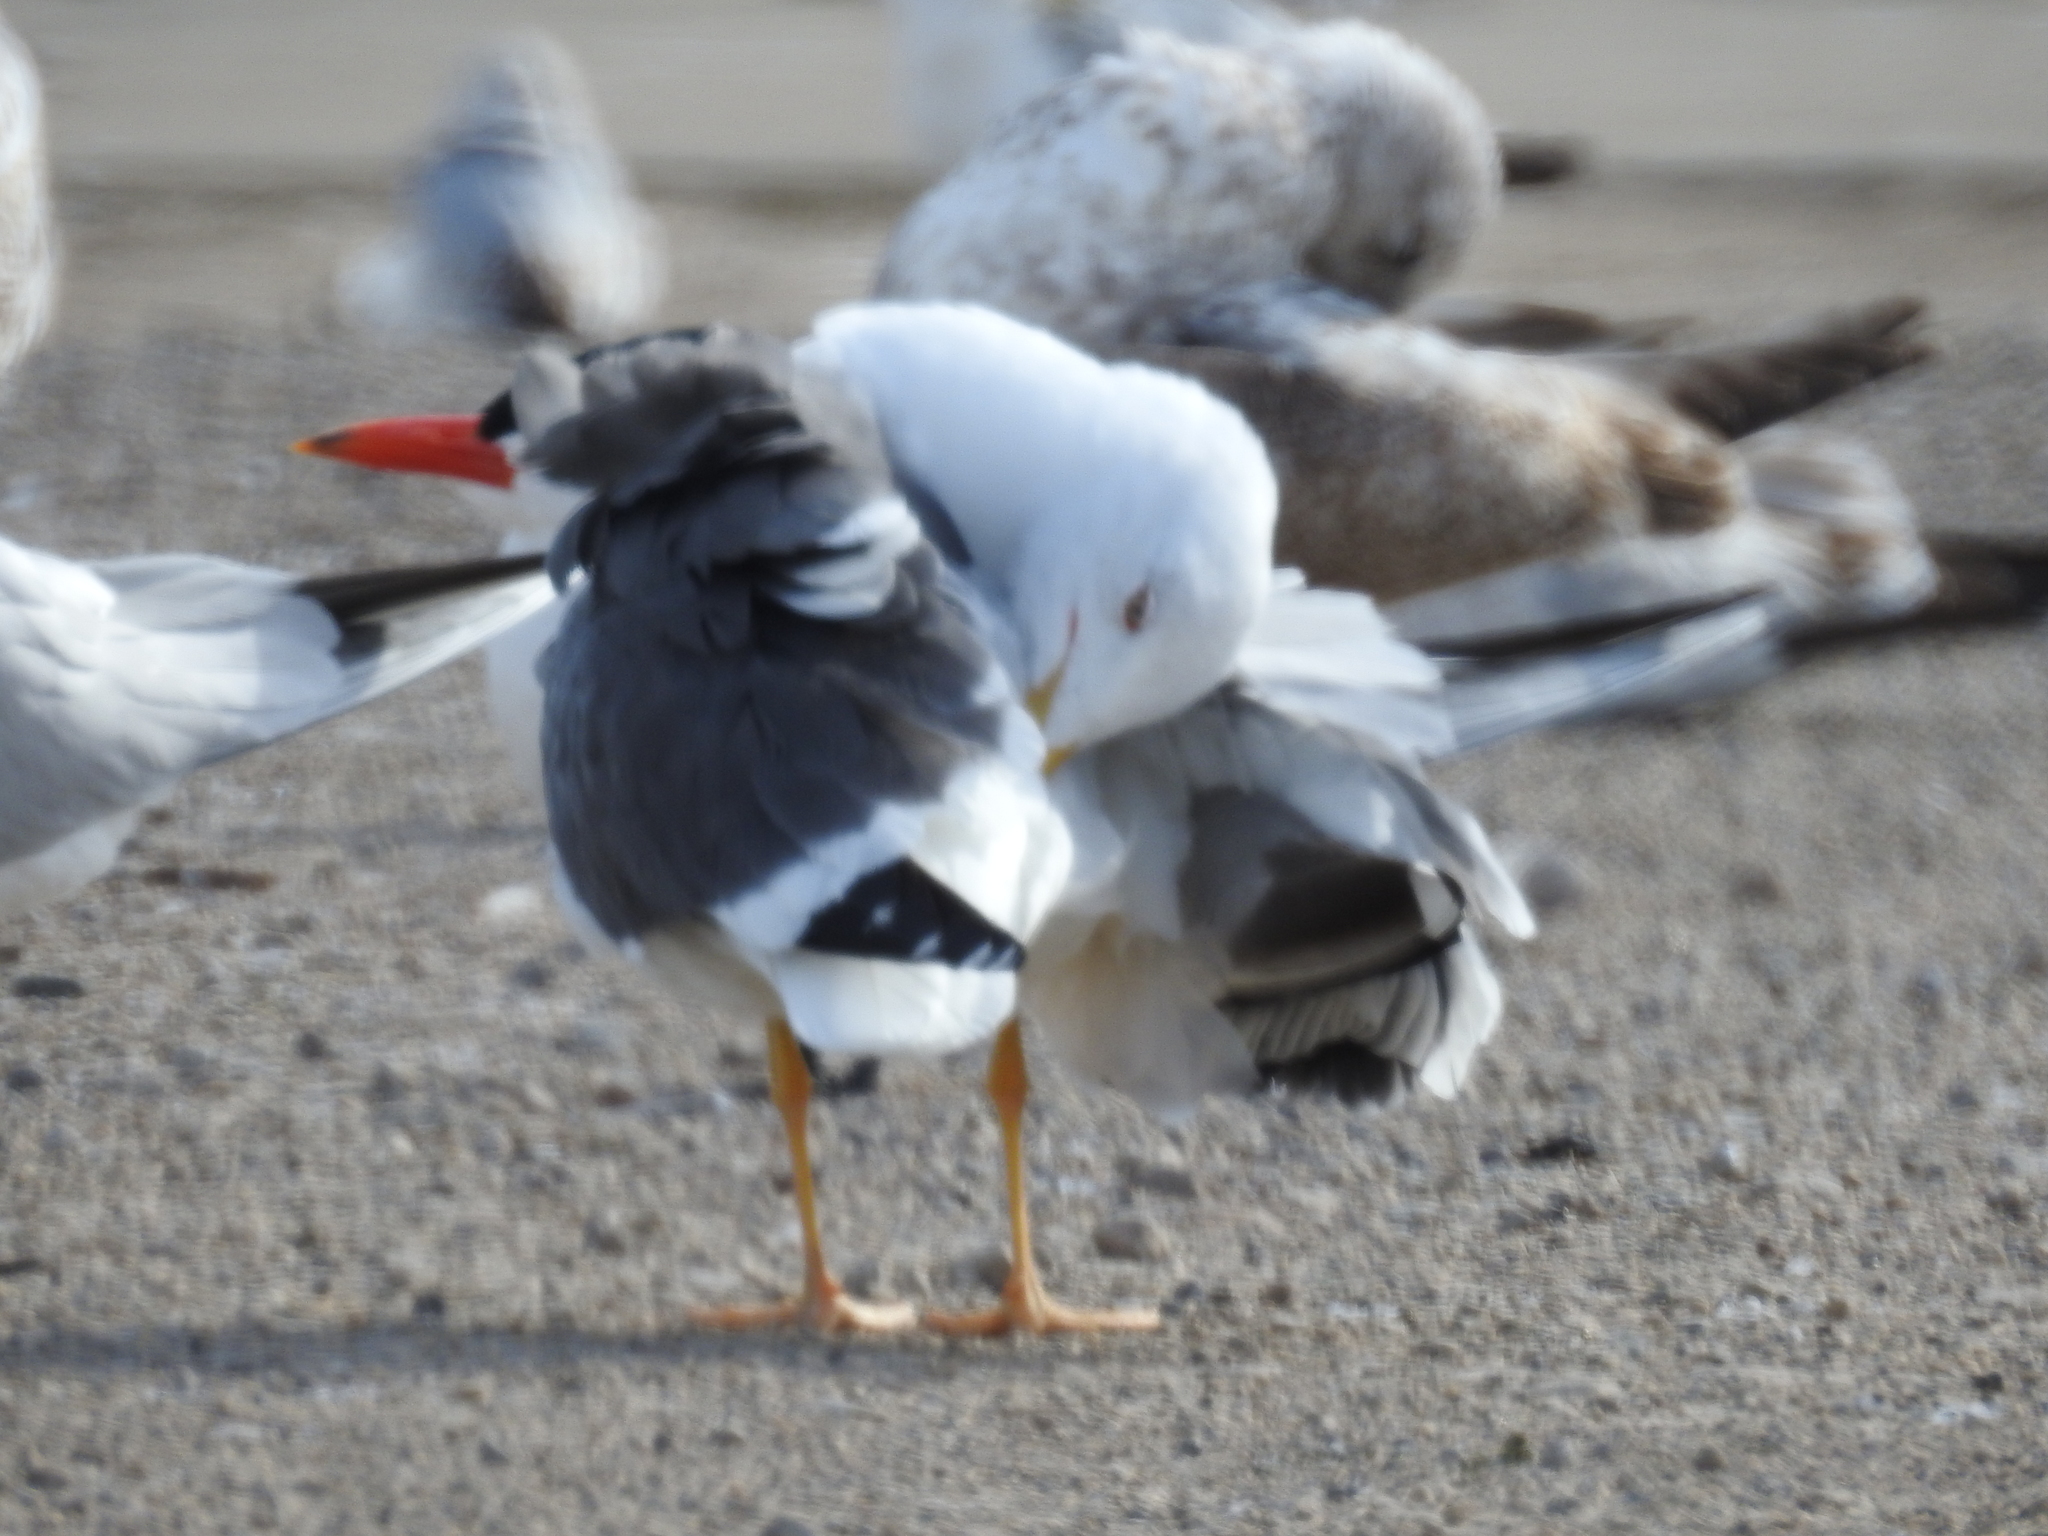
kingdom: Animalia
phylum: Chordata
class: Aves
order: Charadriiformes
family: Laridae
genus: Hydroprogne
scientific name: Hydroprogne caspia
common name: Caspian tern
